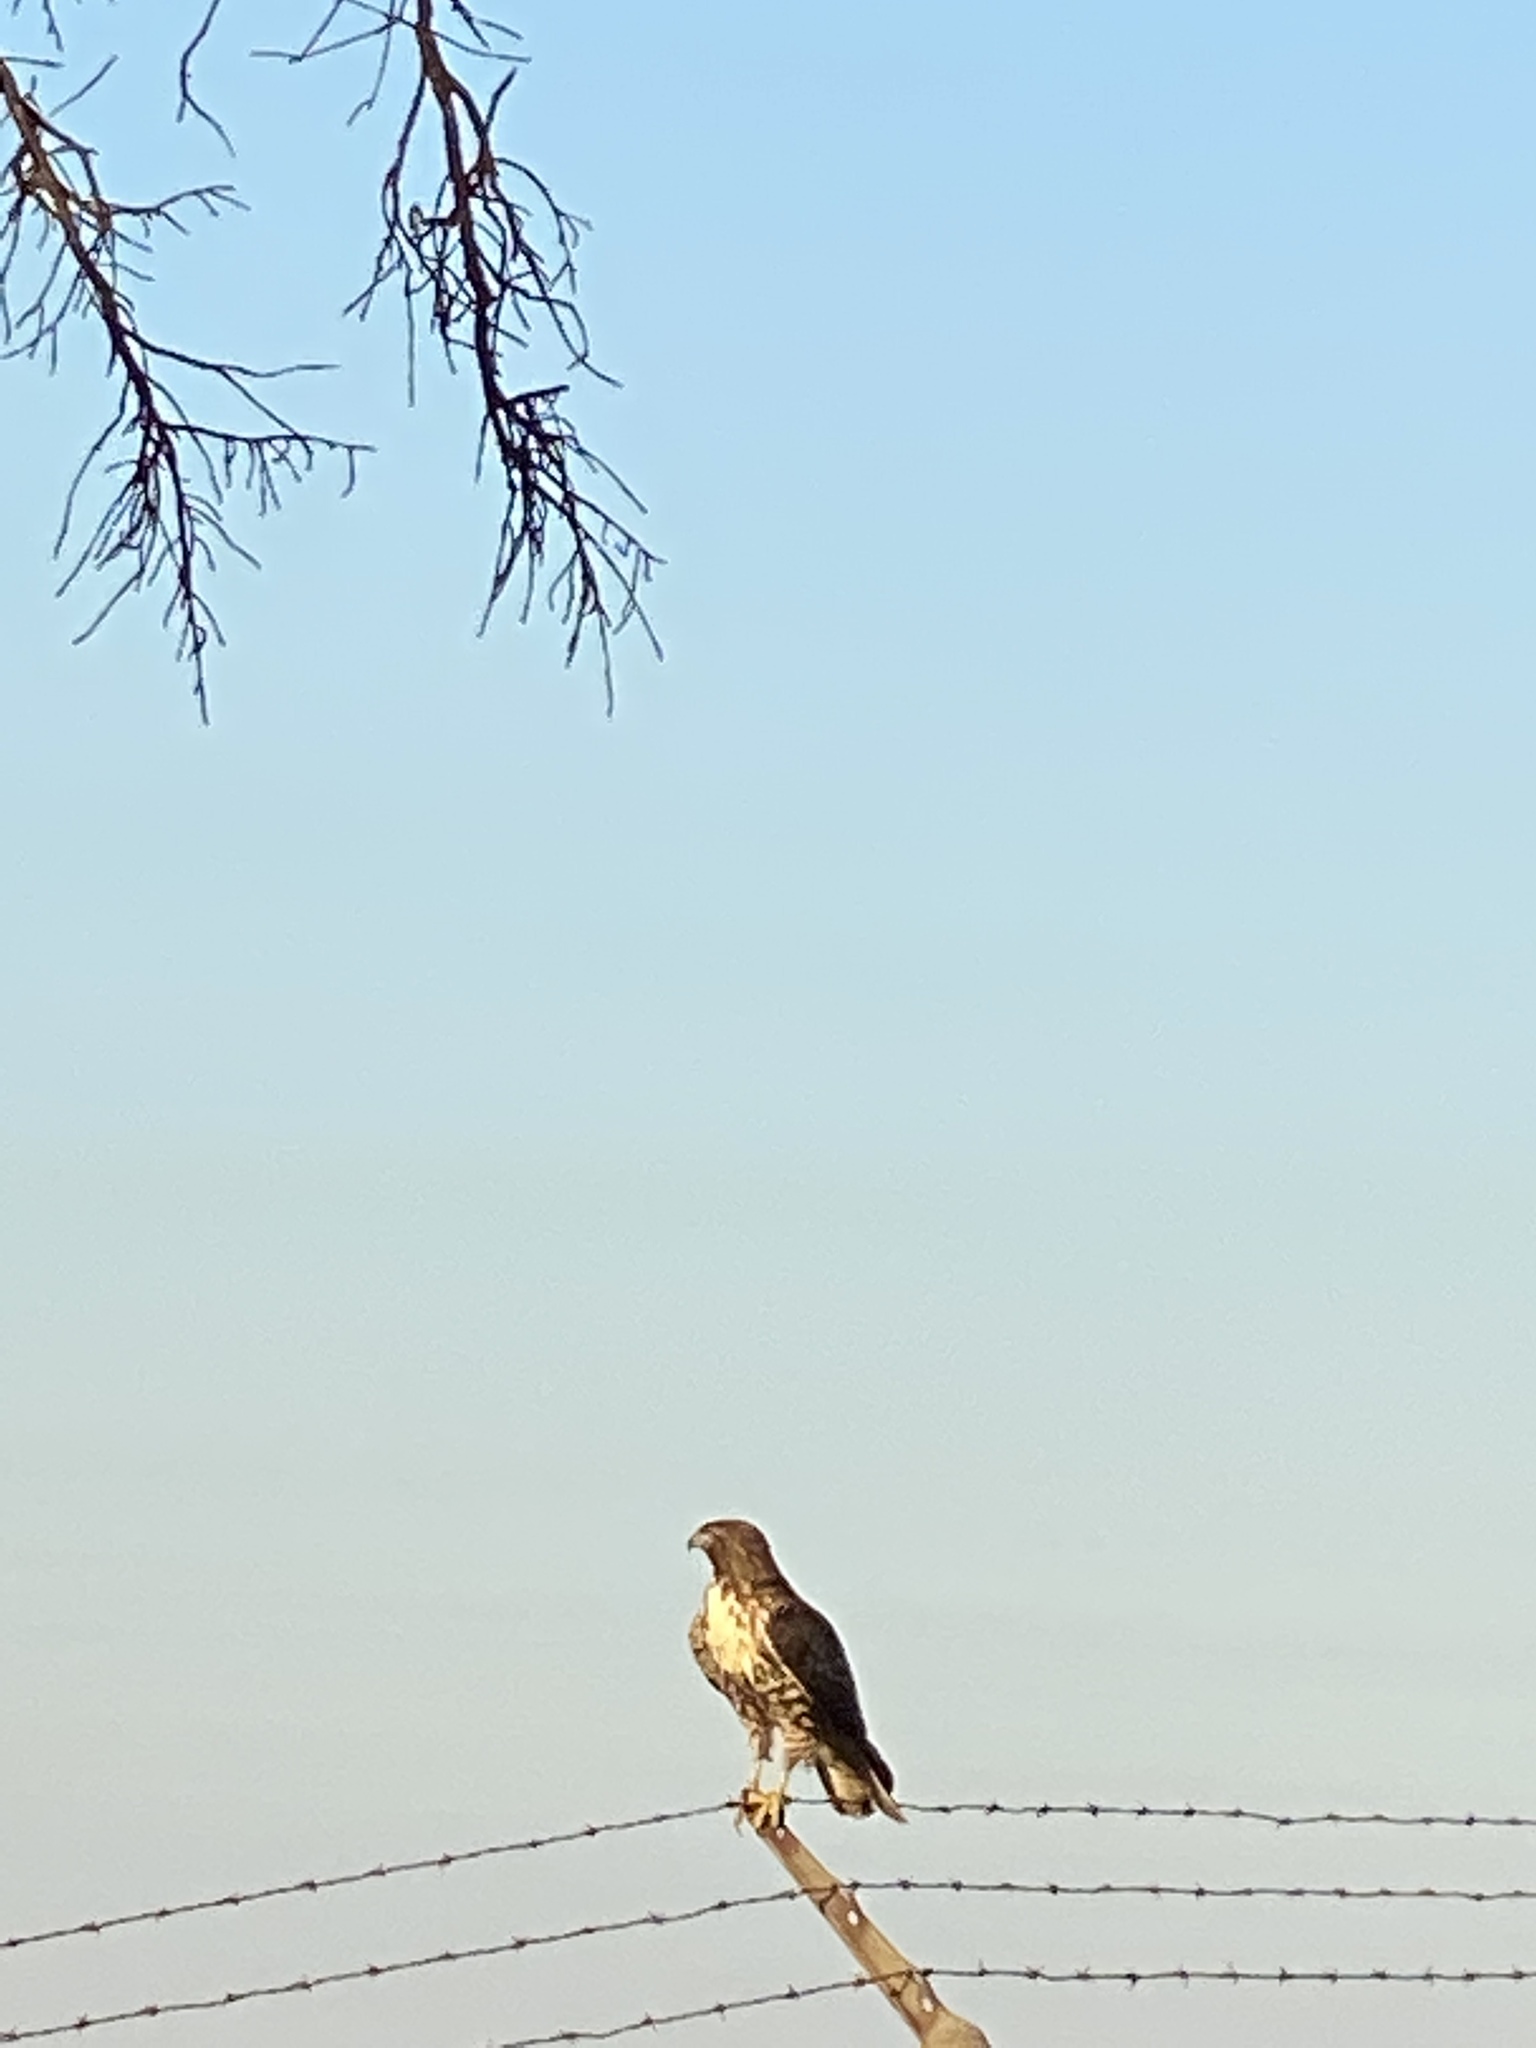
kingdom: Animalia
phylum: Chordata
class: Aves
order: Accipitriformes
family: Accipitridae
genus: Buteo
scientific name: Buteo jamaicensis
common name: Red-tailed hawk
